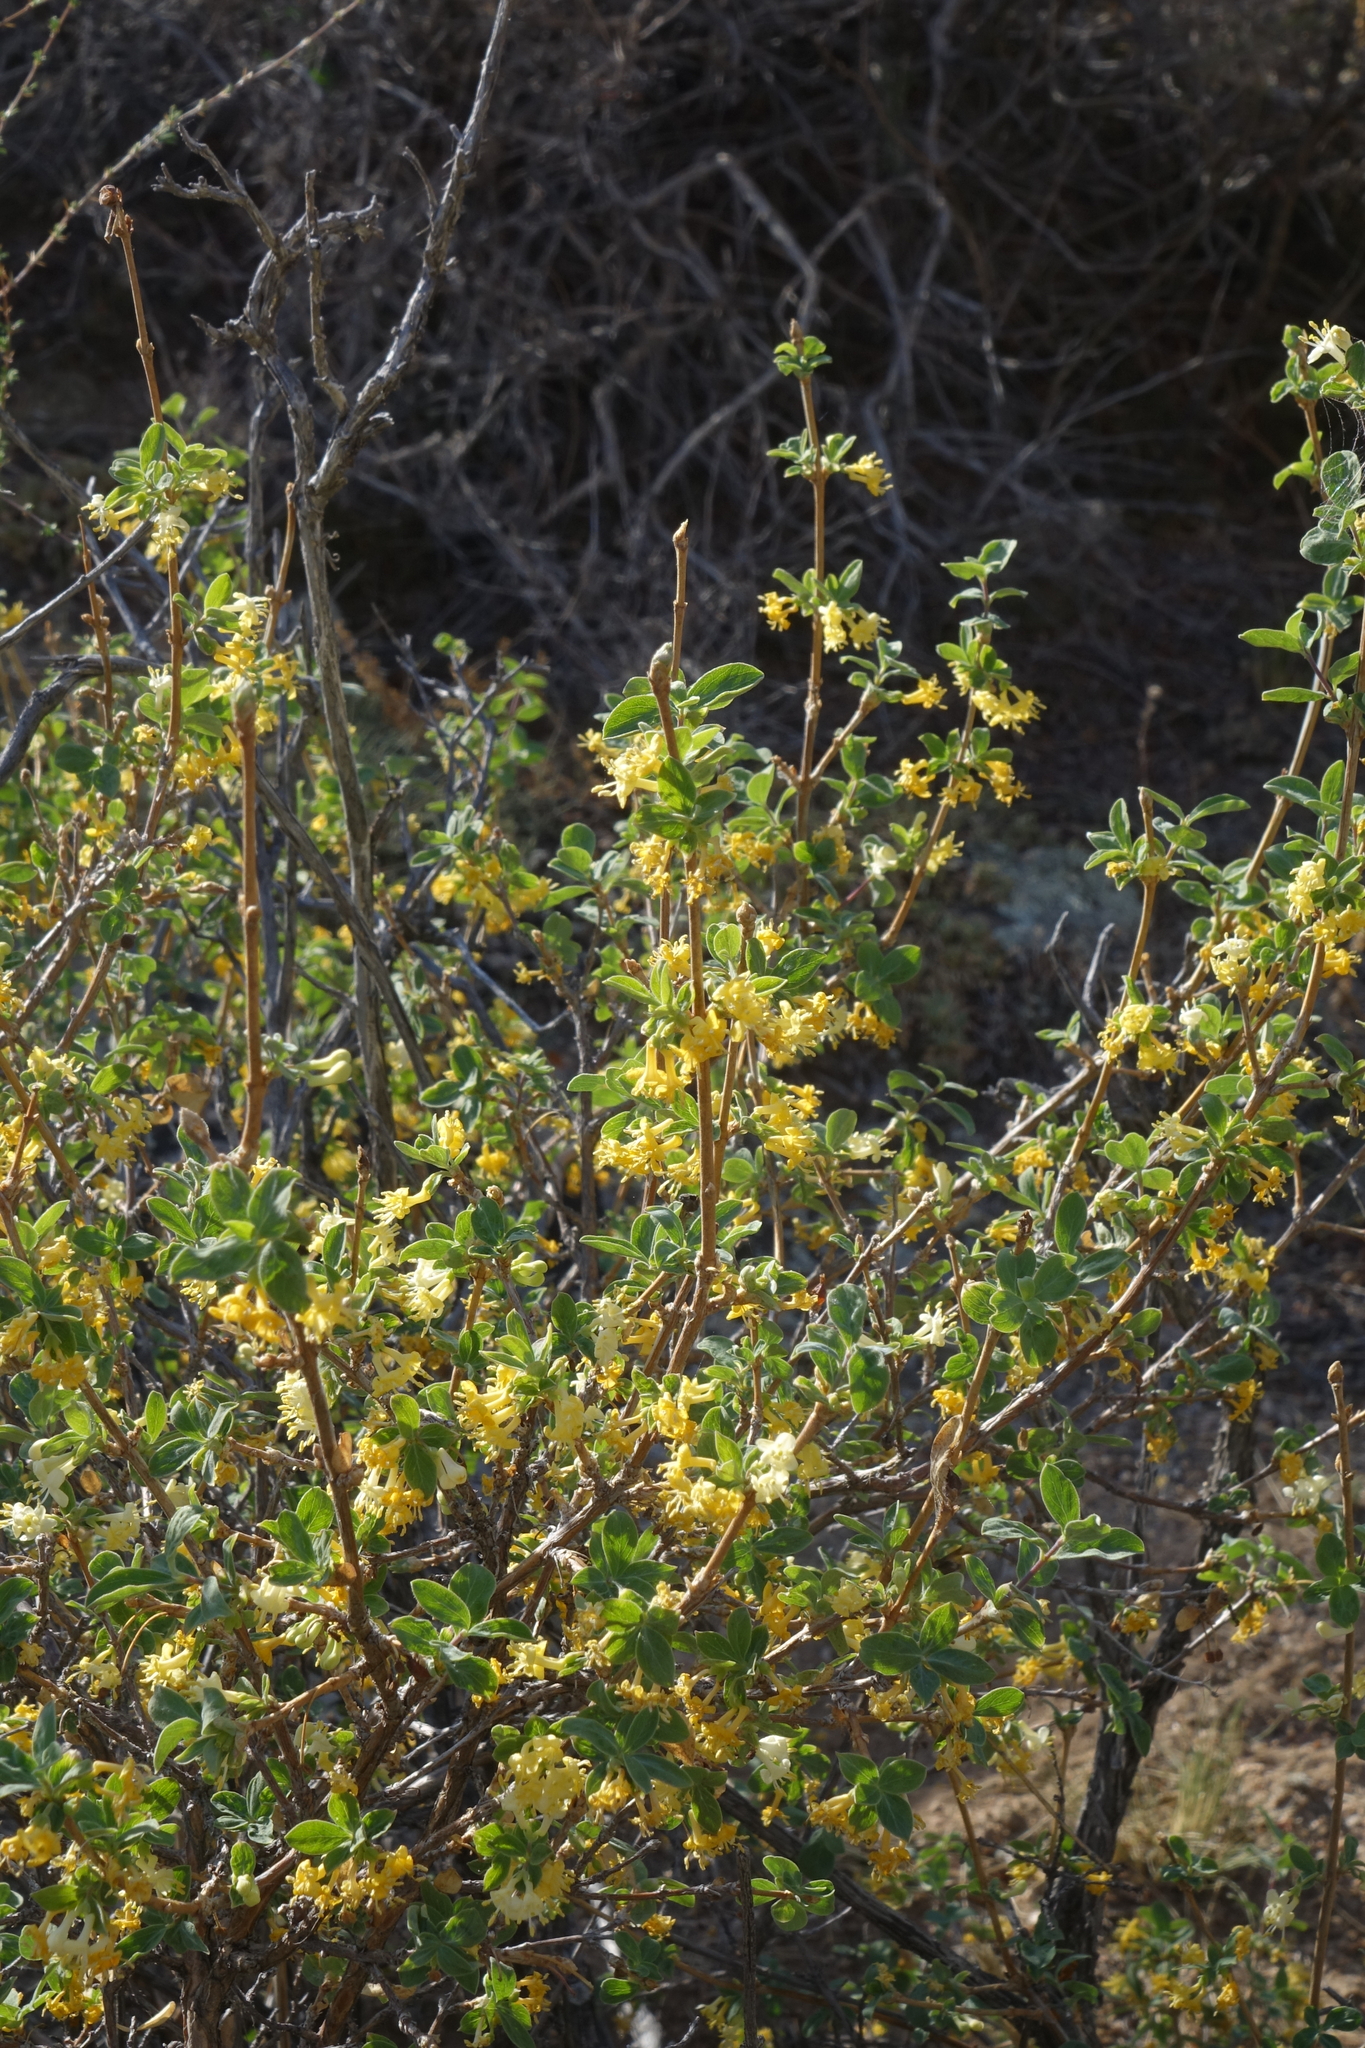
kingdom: Plantae
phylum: Tracheophyta
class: Magnoliopsida
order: Dipsacales
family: Caprifoliaceae
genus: Lonicera
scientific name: Lonicera microphylla
